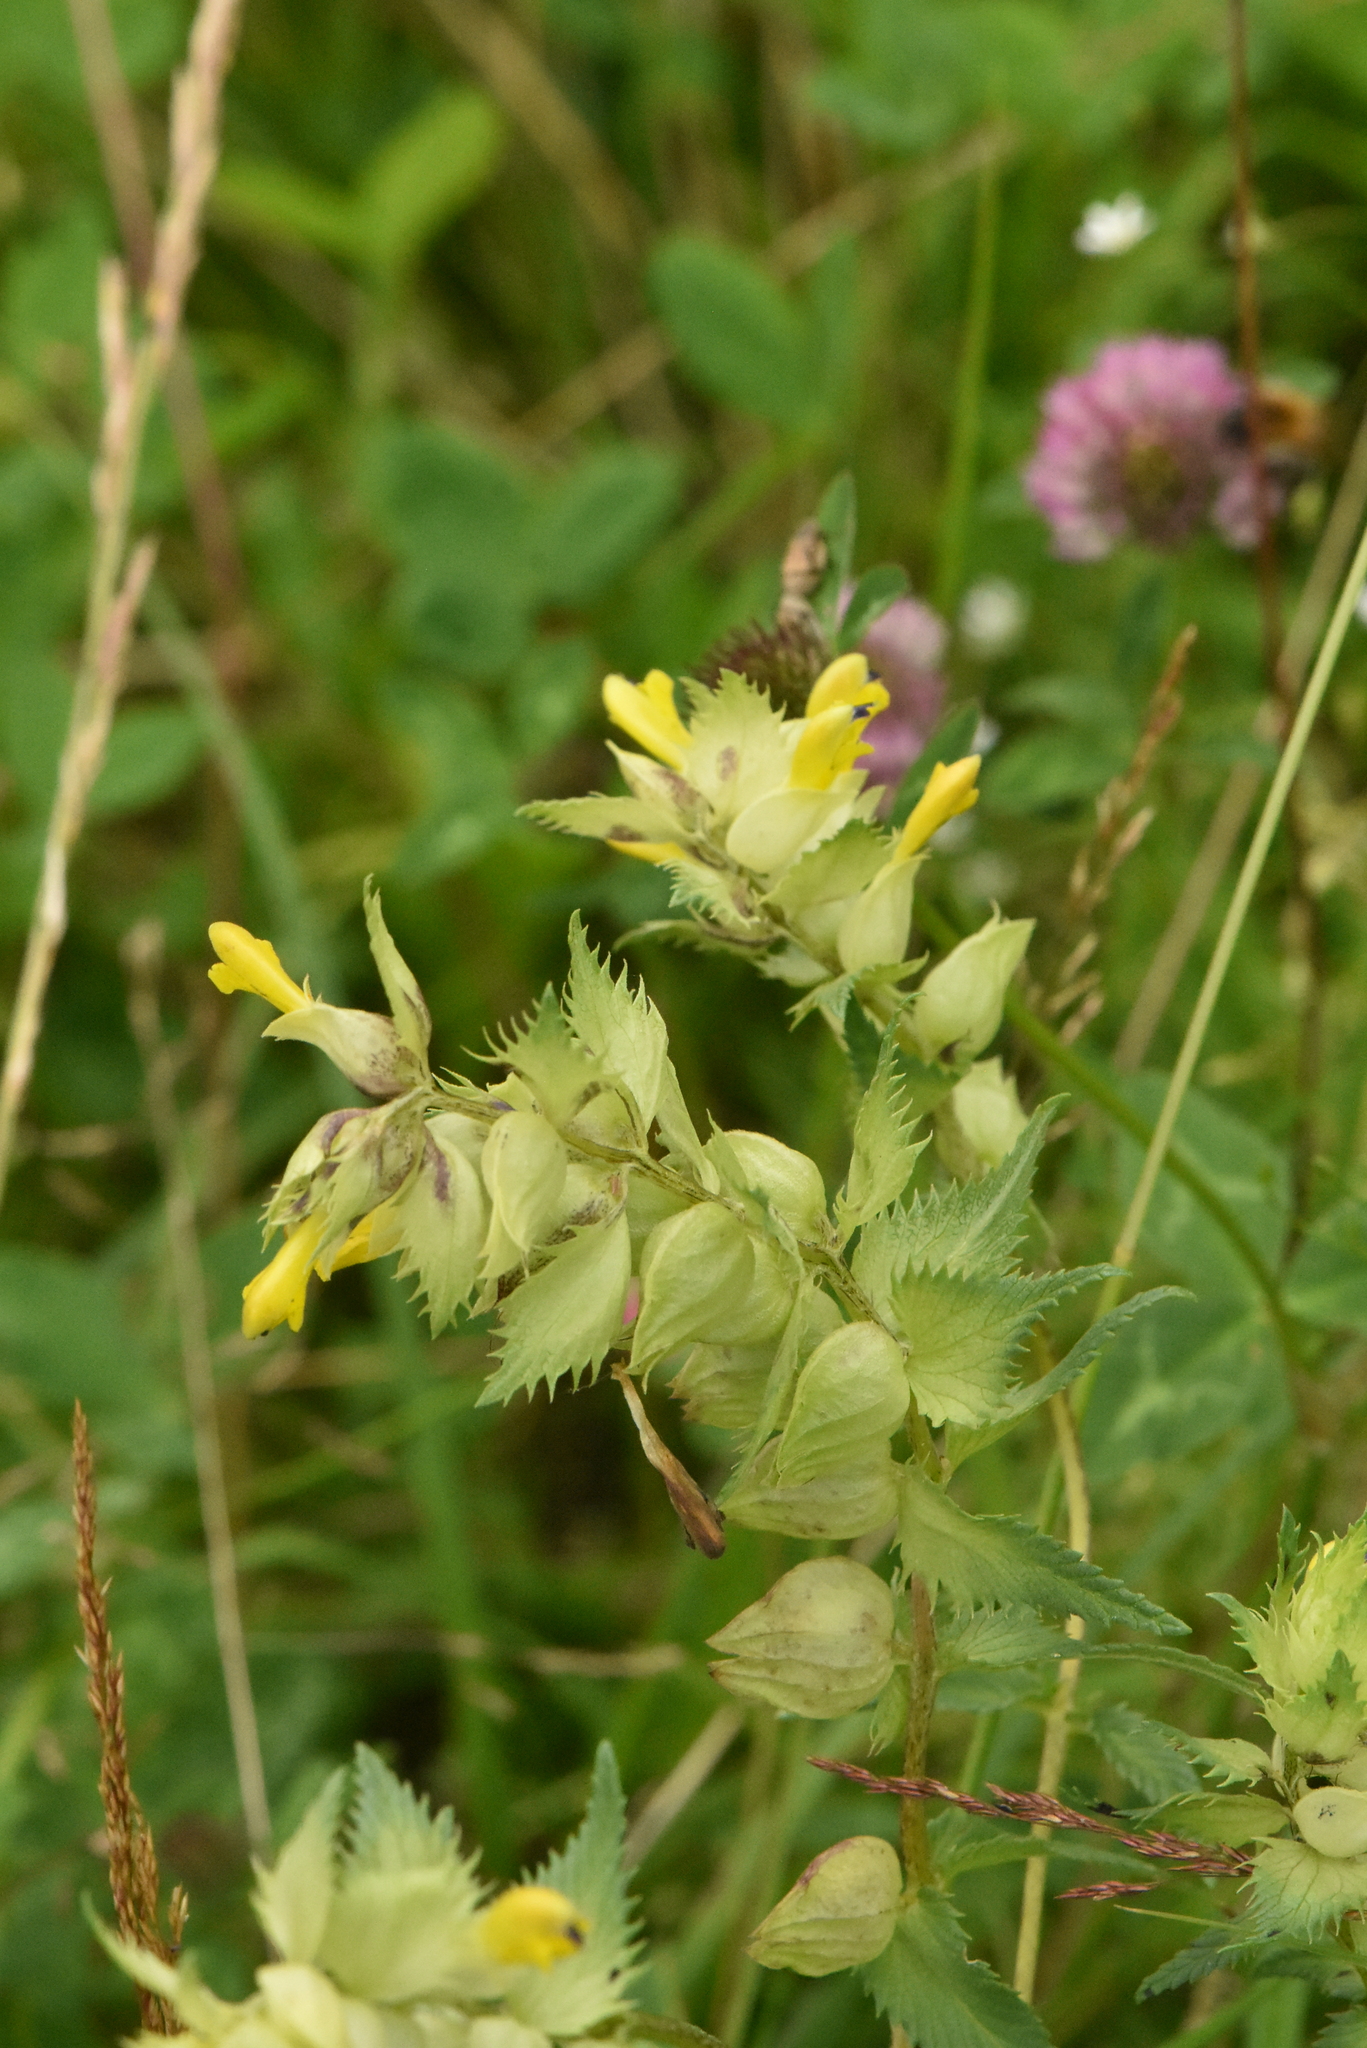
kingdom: Plantae
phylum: Tracheophyta
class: Magnoliopsida
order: Lamiales
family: Orobanchaceae
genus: Rhinanthus
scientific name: Rhinanthus serotinus
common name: Late-flowering yellow rattle
